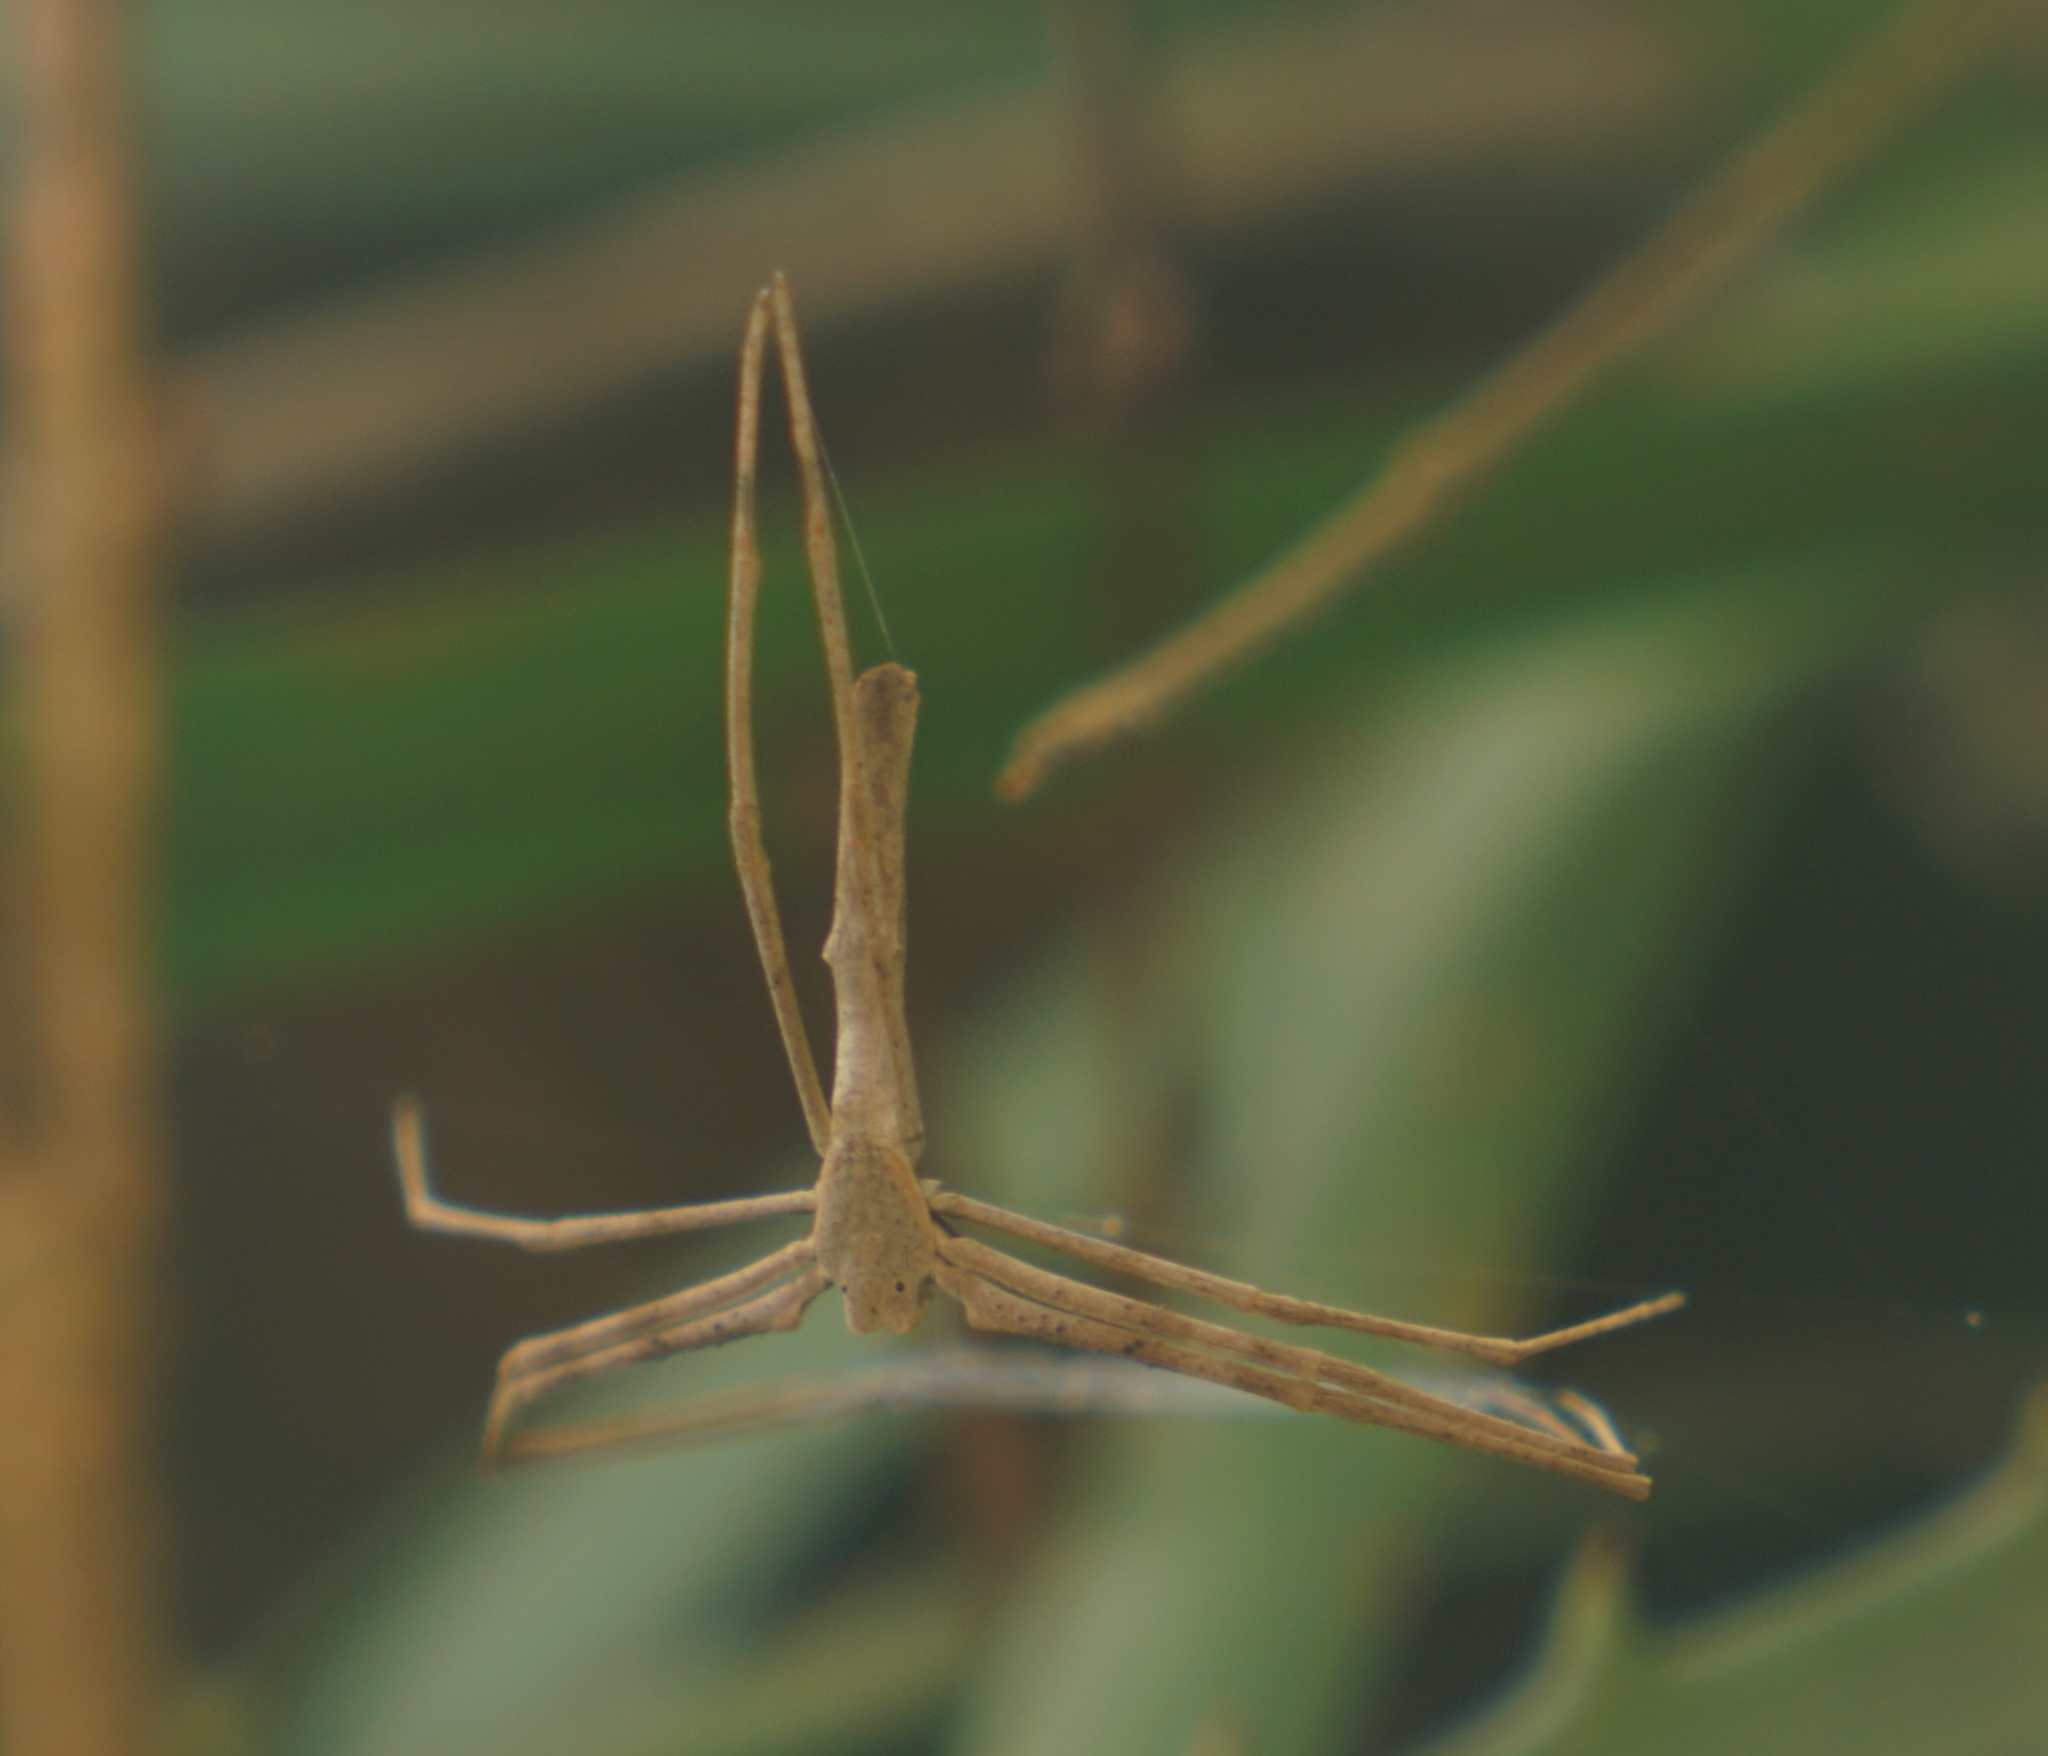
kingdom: Animalia
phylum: Arthropoda
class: Arachnida
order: Araneae
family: Deinopidae
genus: Deinopis
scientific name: Deinopis subrufa
